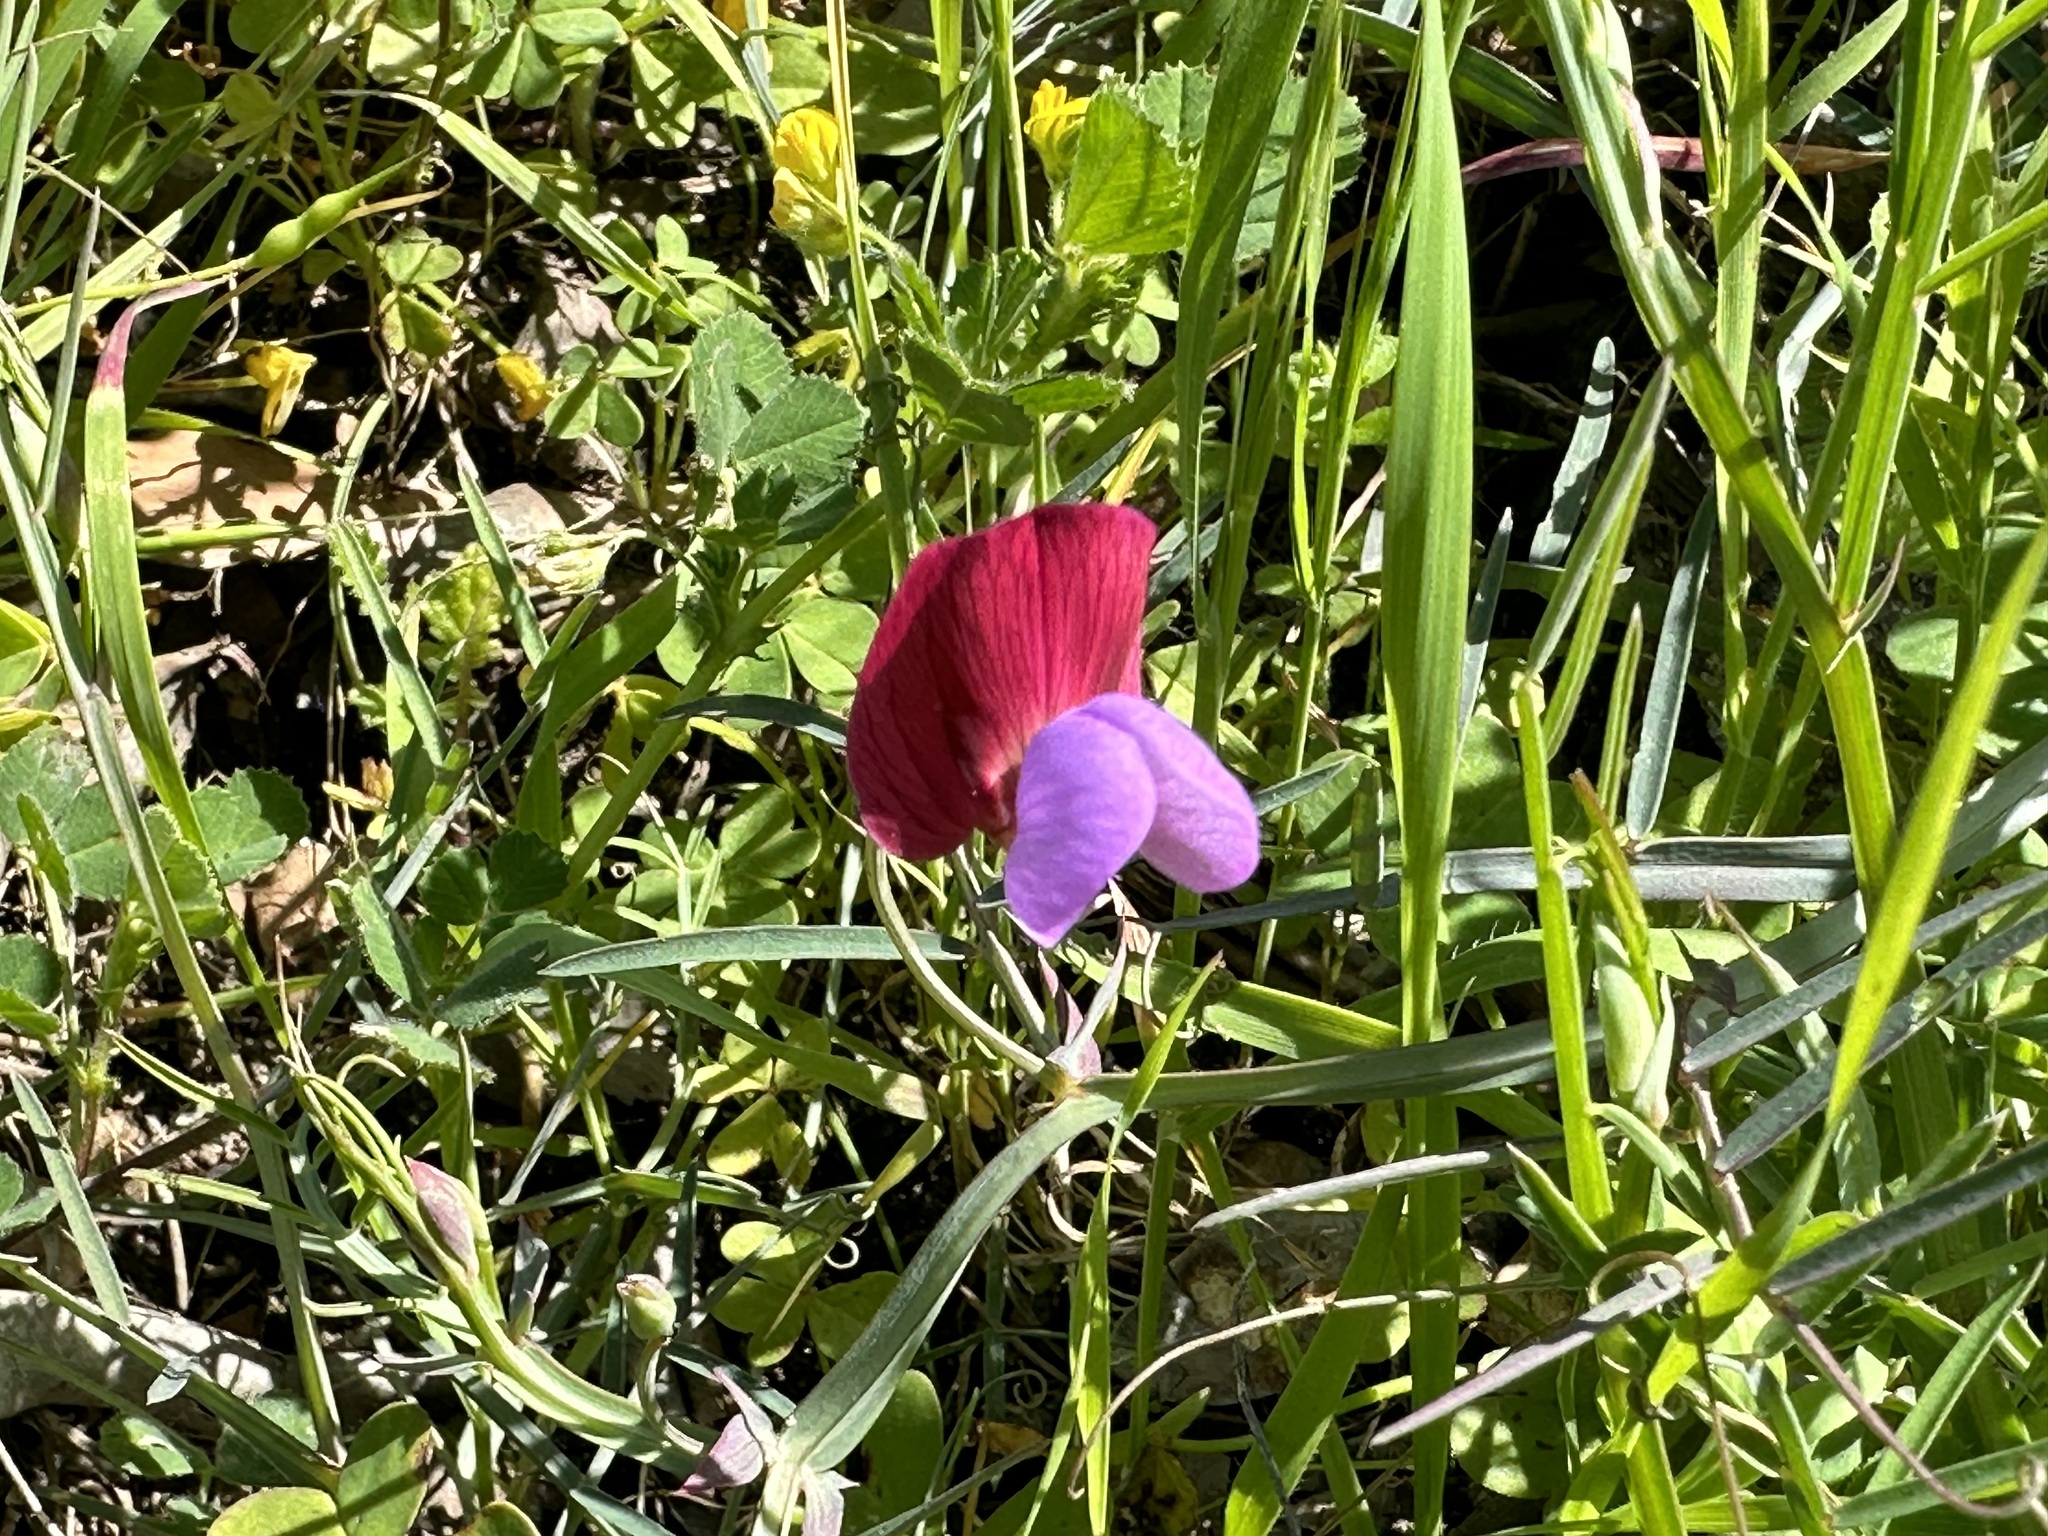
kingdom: Plantae
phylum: Tracheophyta
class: Magnoliopsida
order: Fabales
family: Fabaceae
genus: Lathyrus
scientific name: Lathyrus clymenum
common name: Spanish vetchling
